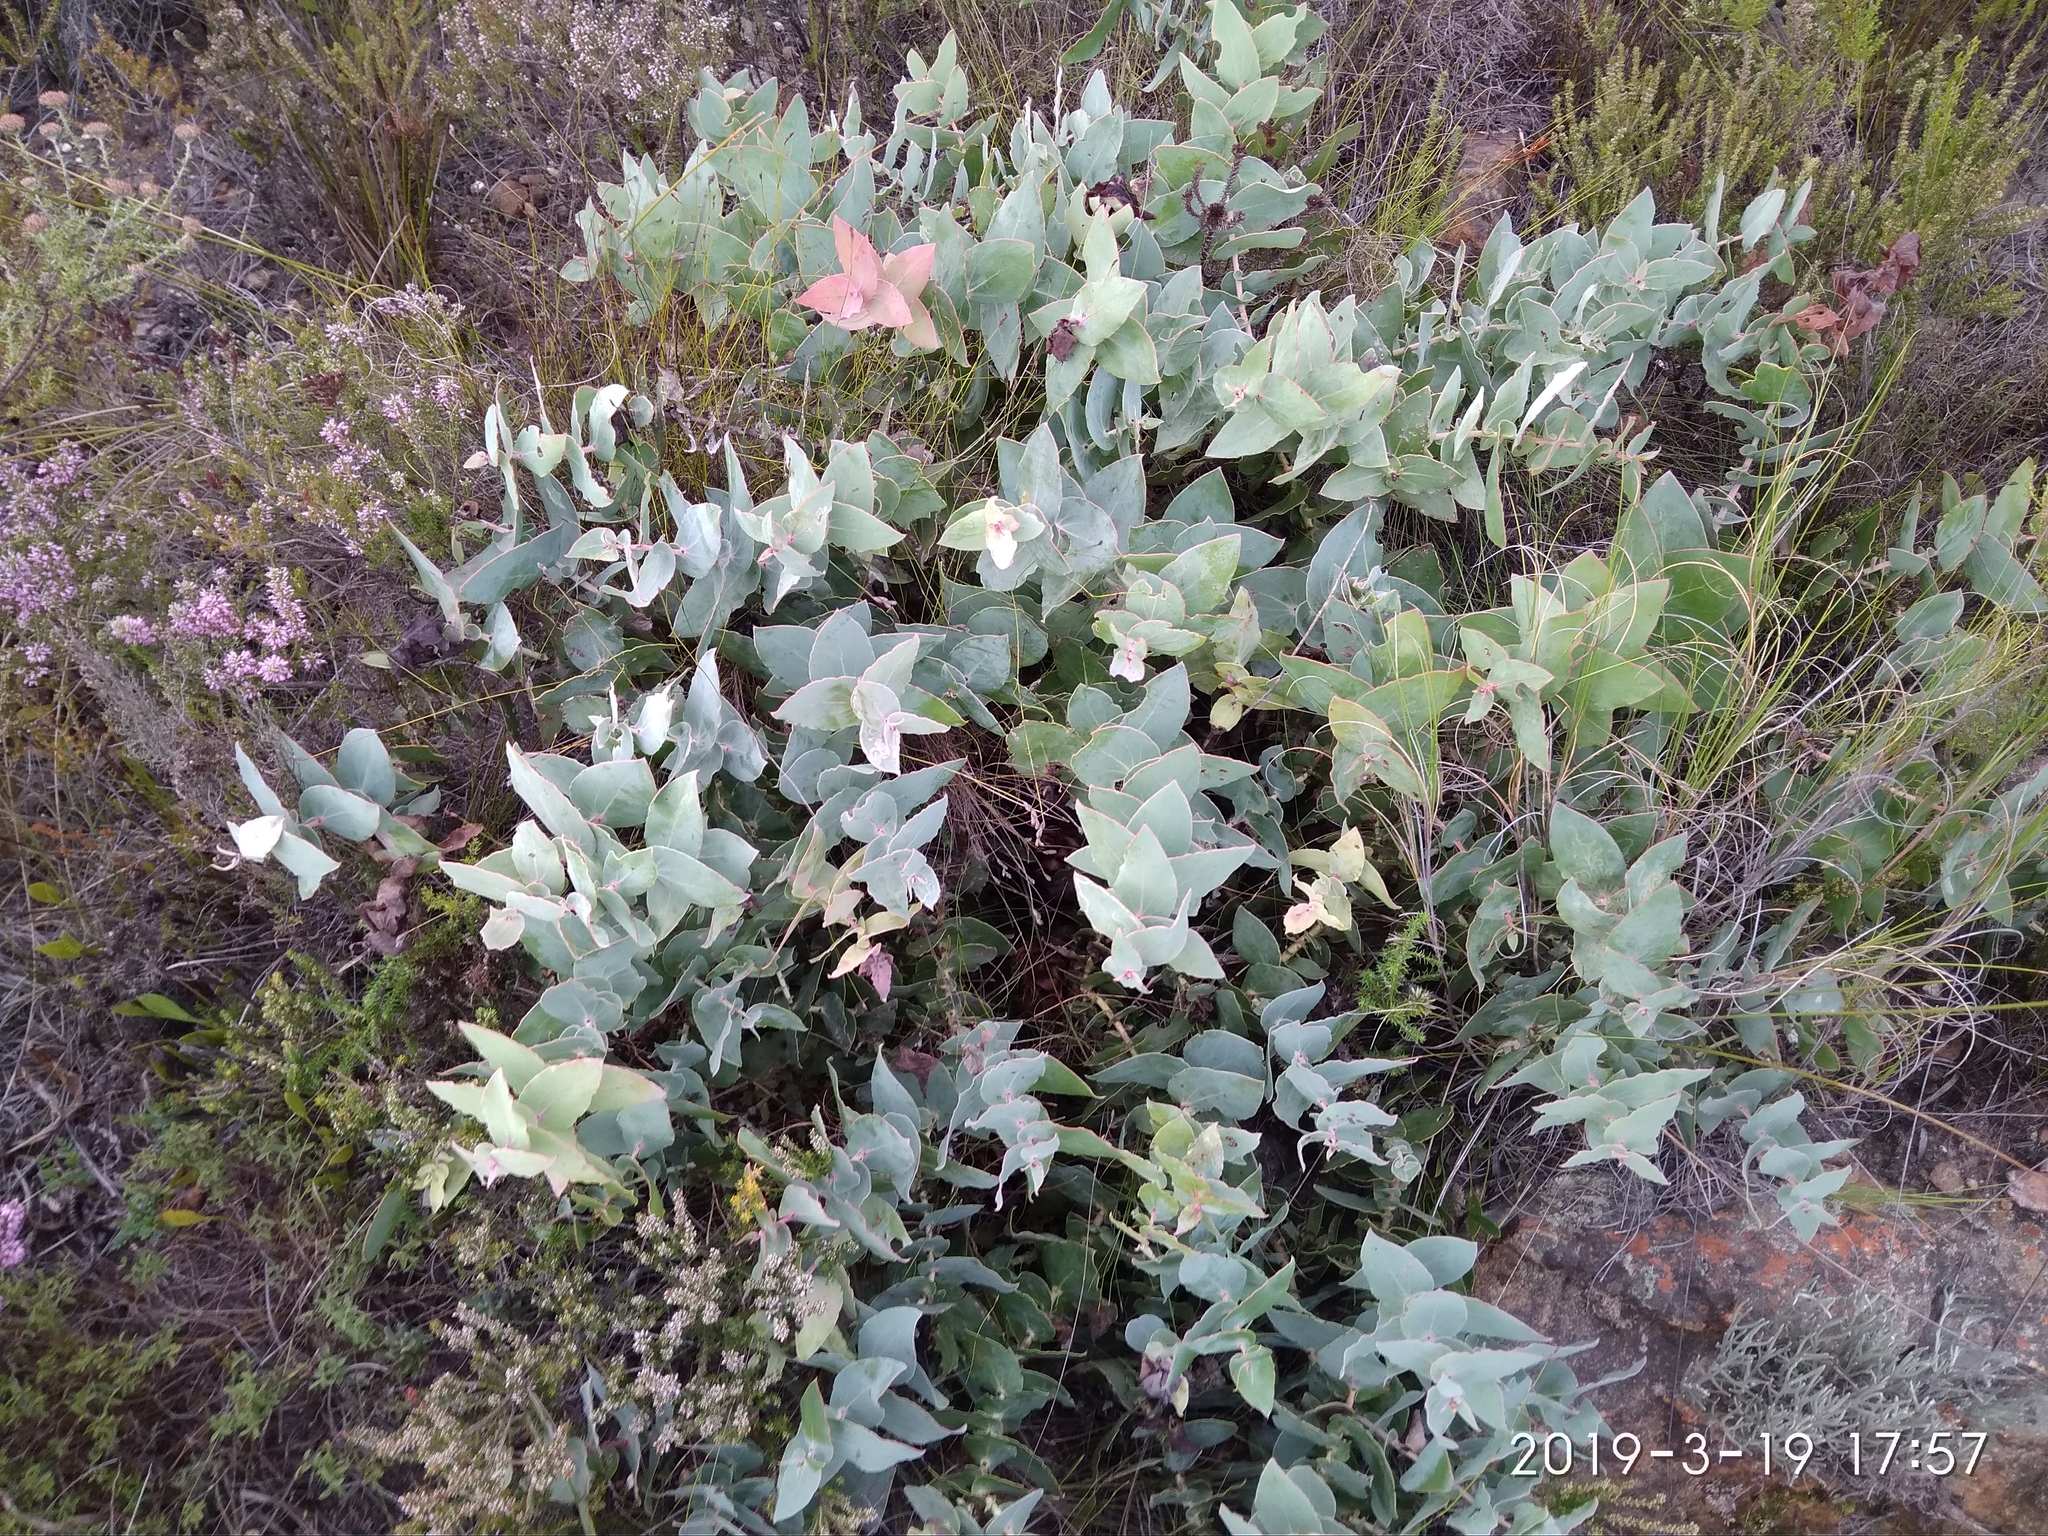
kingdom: Plantae
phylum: Tracheophyta
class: Magnoliopsida
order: Proteales
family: Proteaceae
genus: Protea
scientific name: Protea amplexicaulis
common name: Clasping-leaf sugarbush
